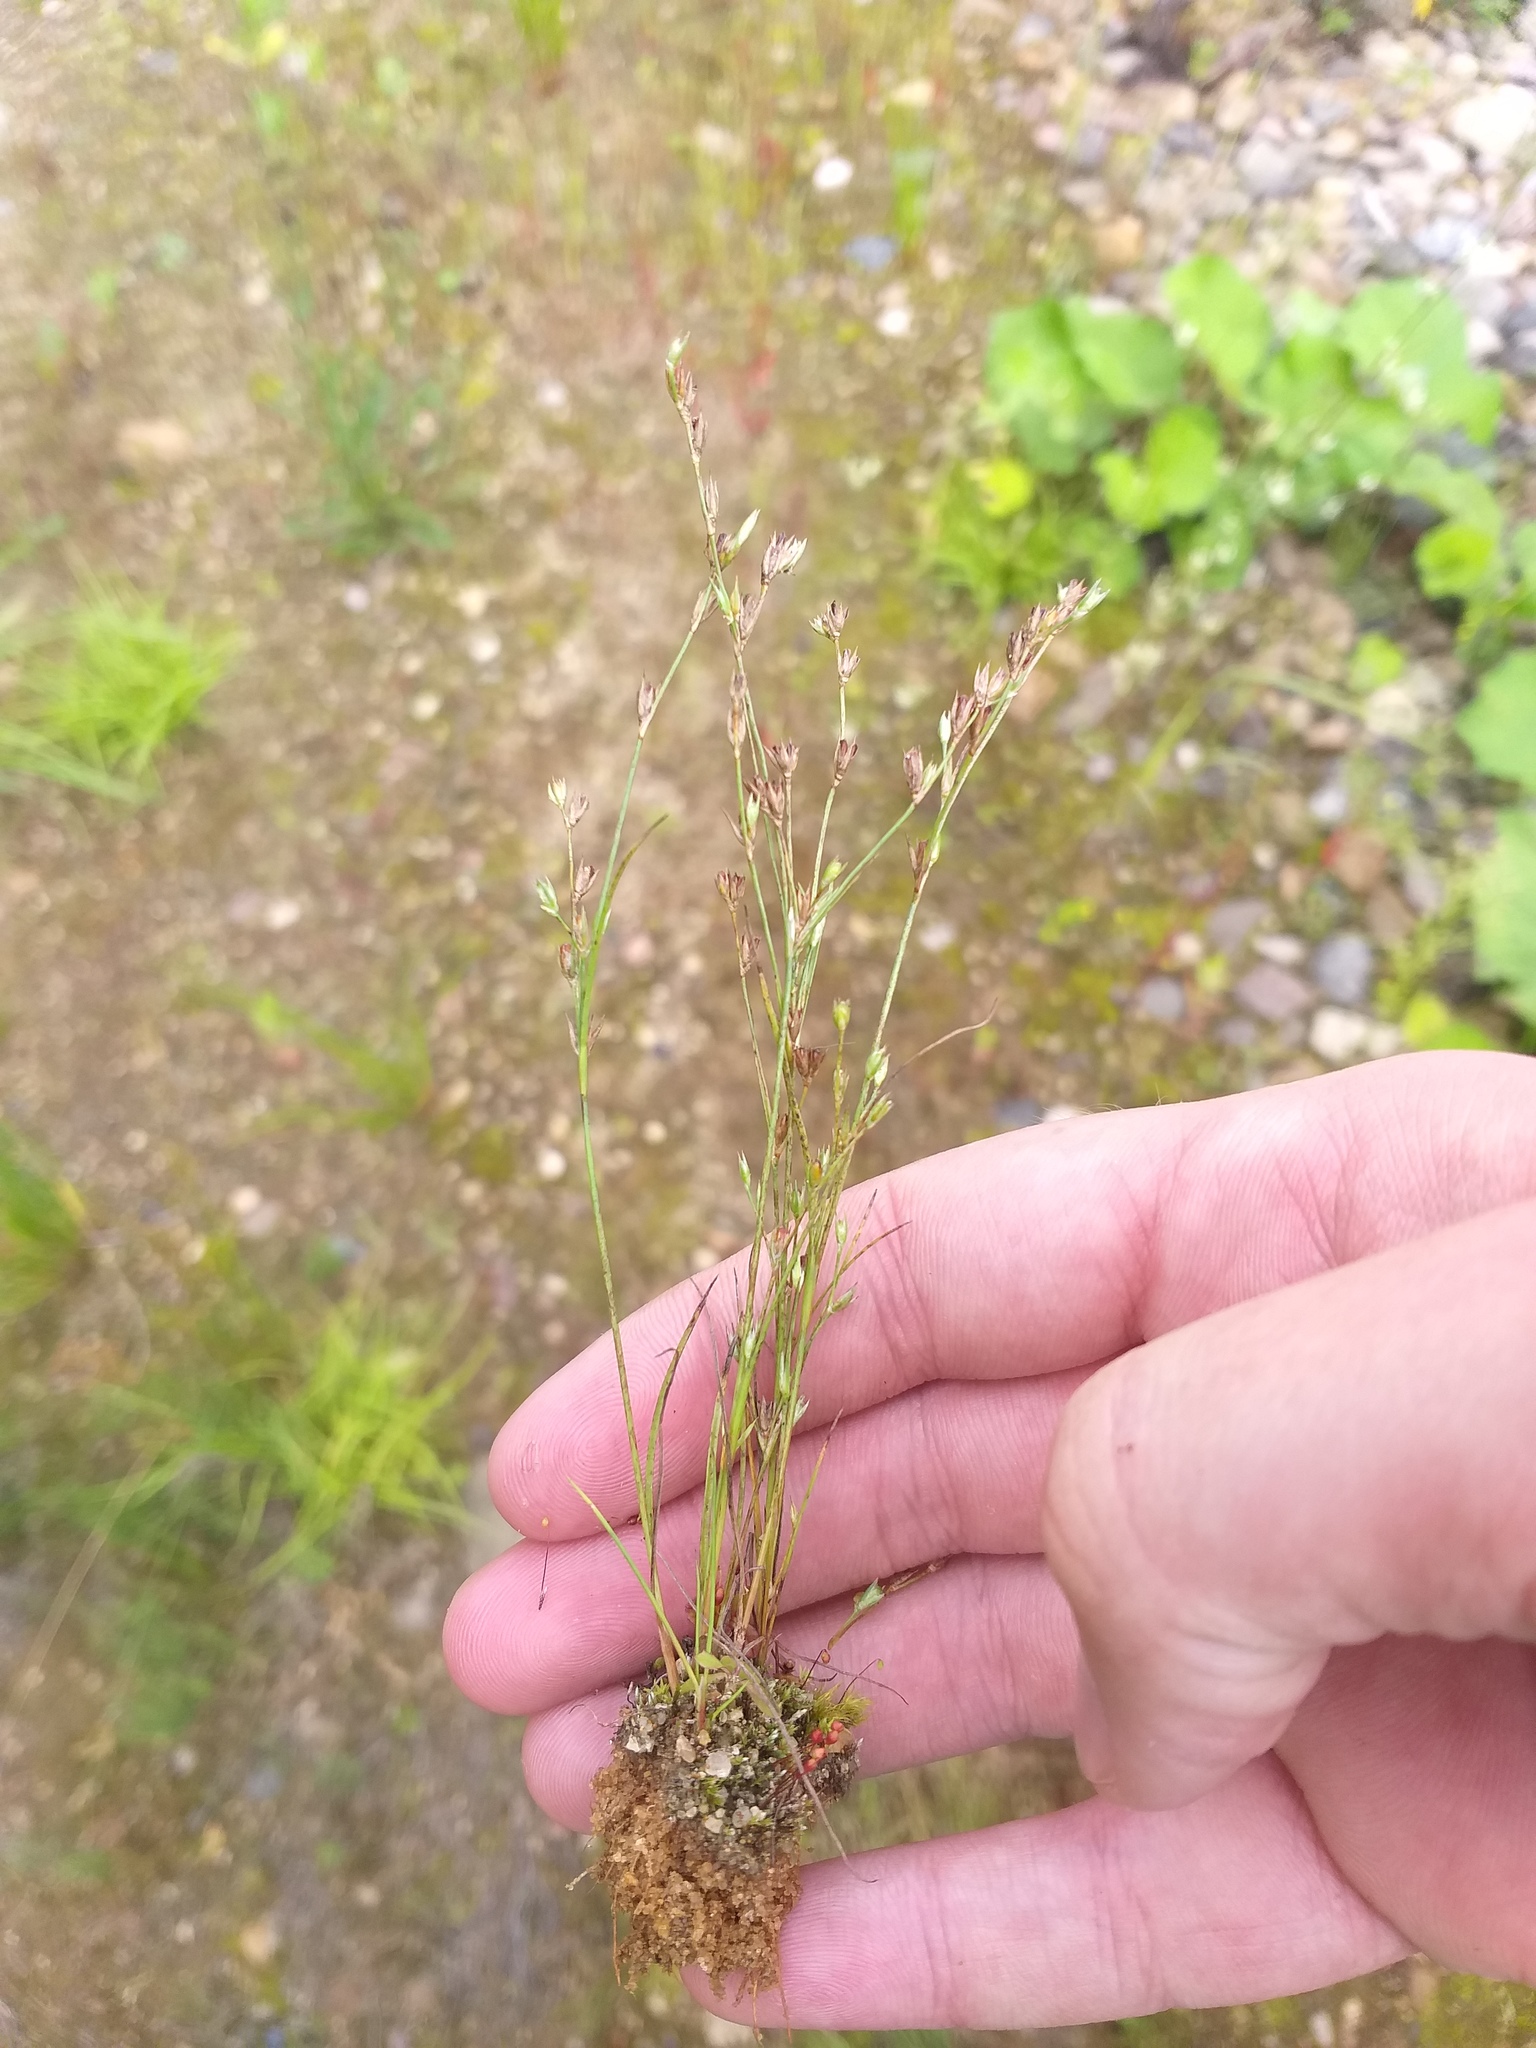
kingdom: Plantae
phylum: Tracheophyta
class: Liliopsida
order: Poales
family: Juncaceae
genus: Juncus
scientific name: Juncus bufonius
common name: Toad rush
